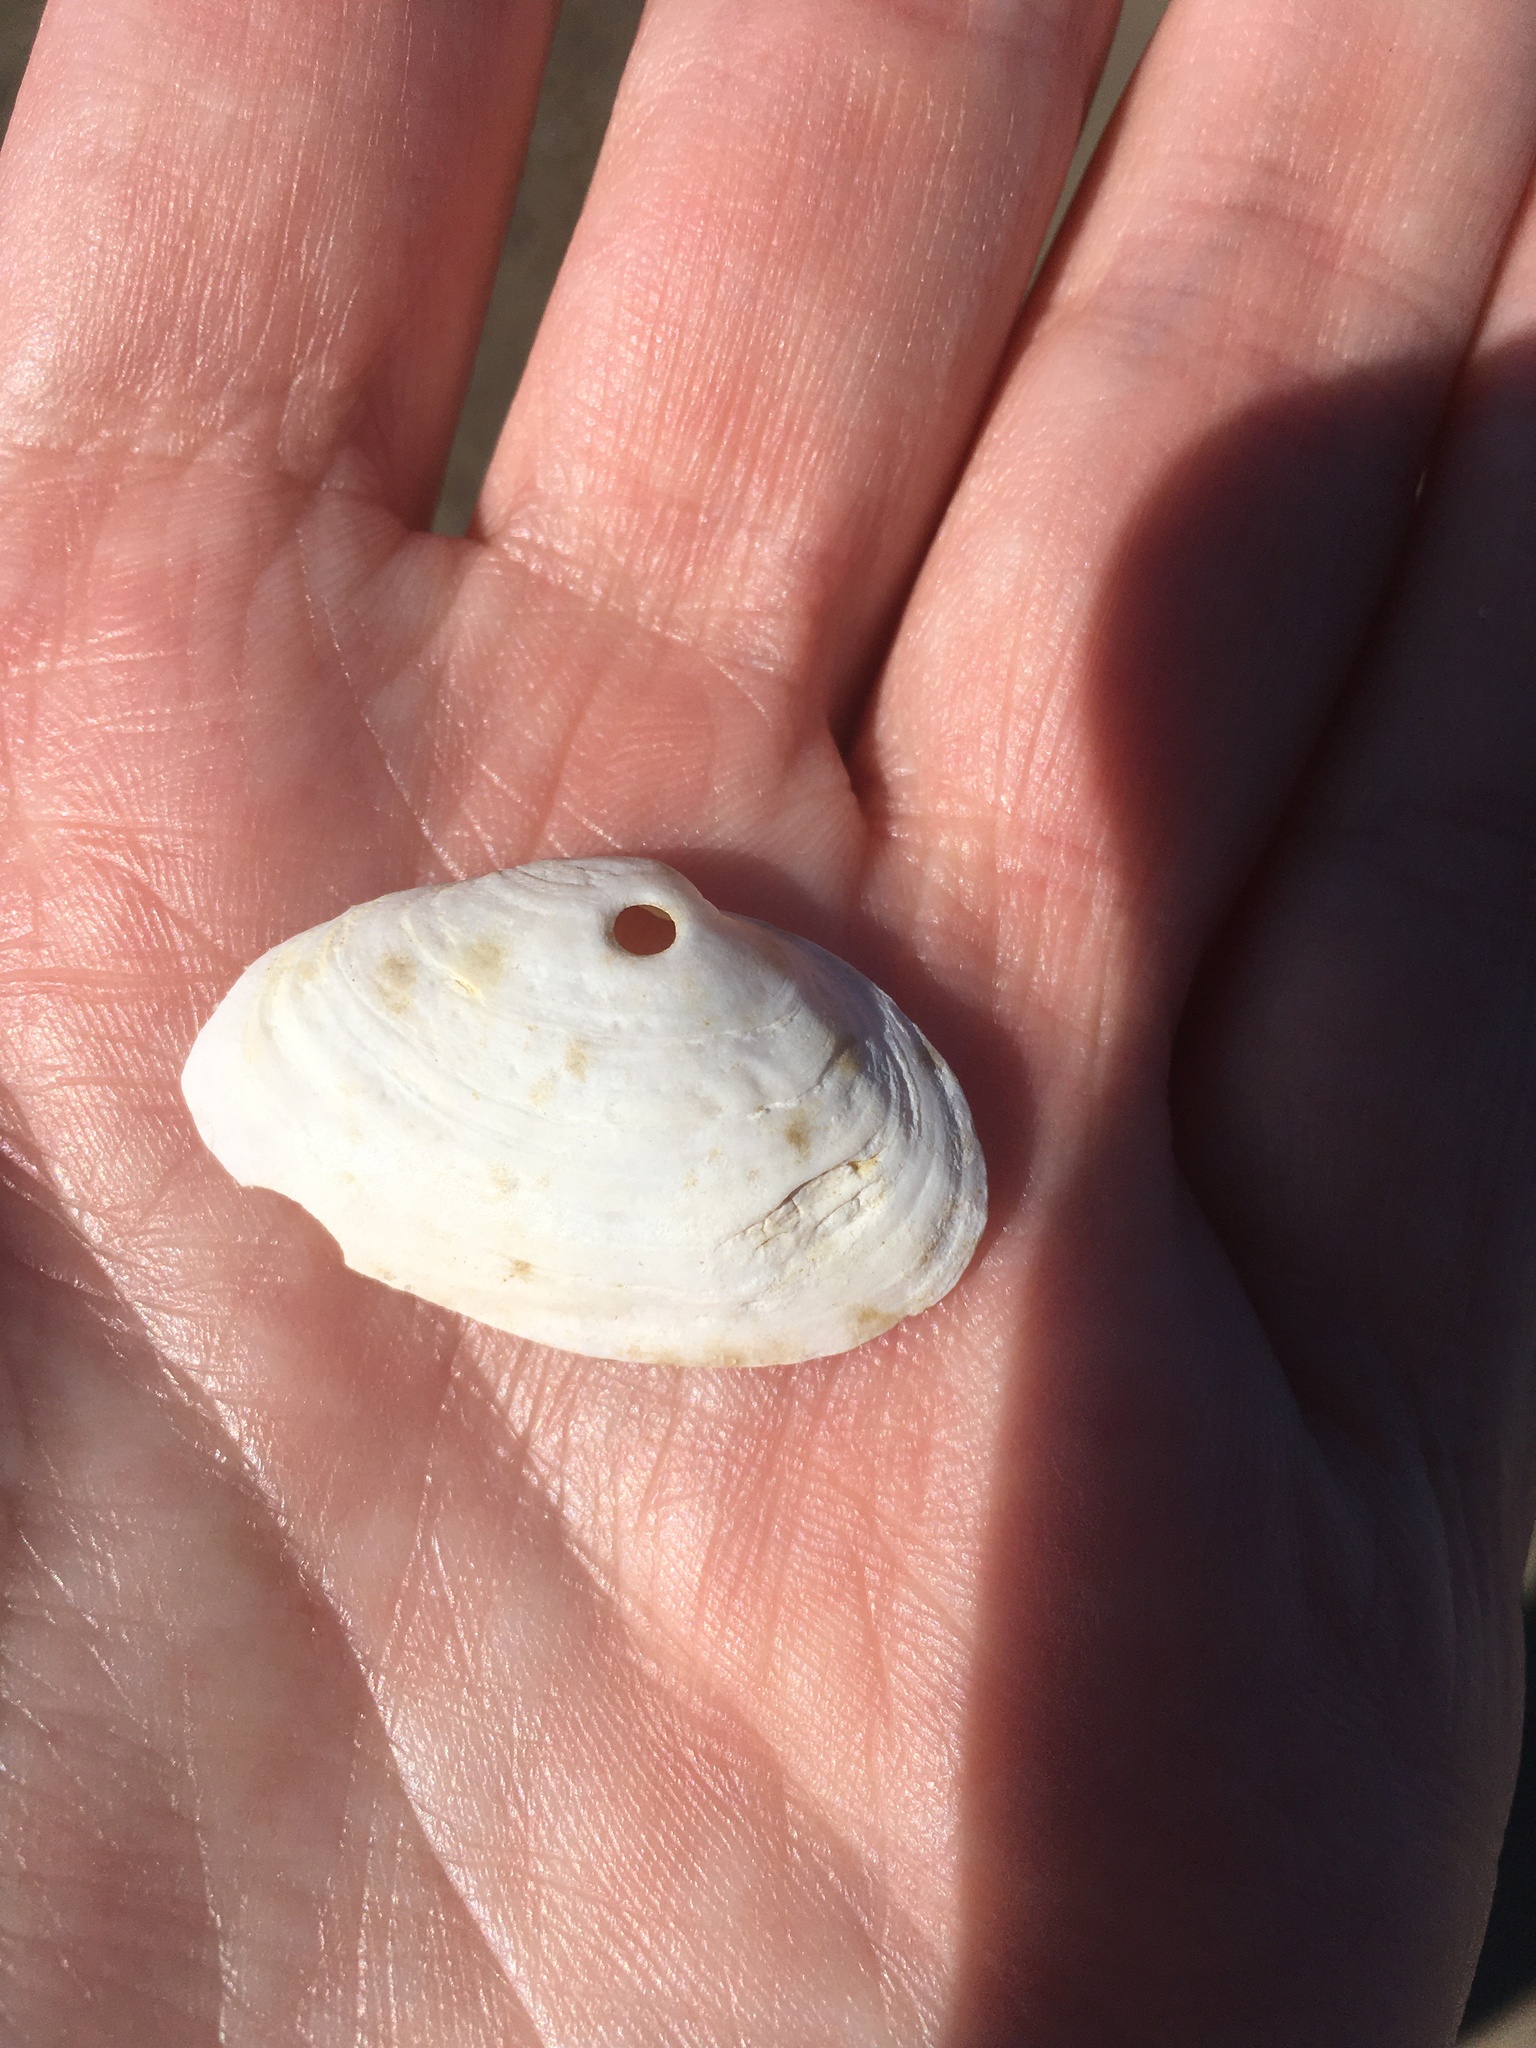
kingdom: Animalia
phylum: Mollusca
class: Bivalvia
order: Myida
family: Myidae
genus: Mya
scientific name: Mya arenaria
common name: Soft-shelled clam
